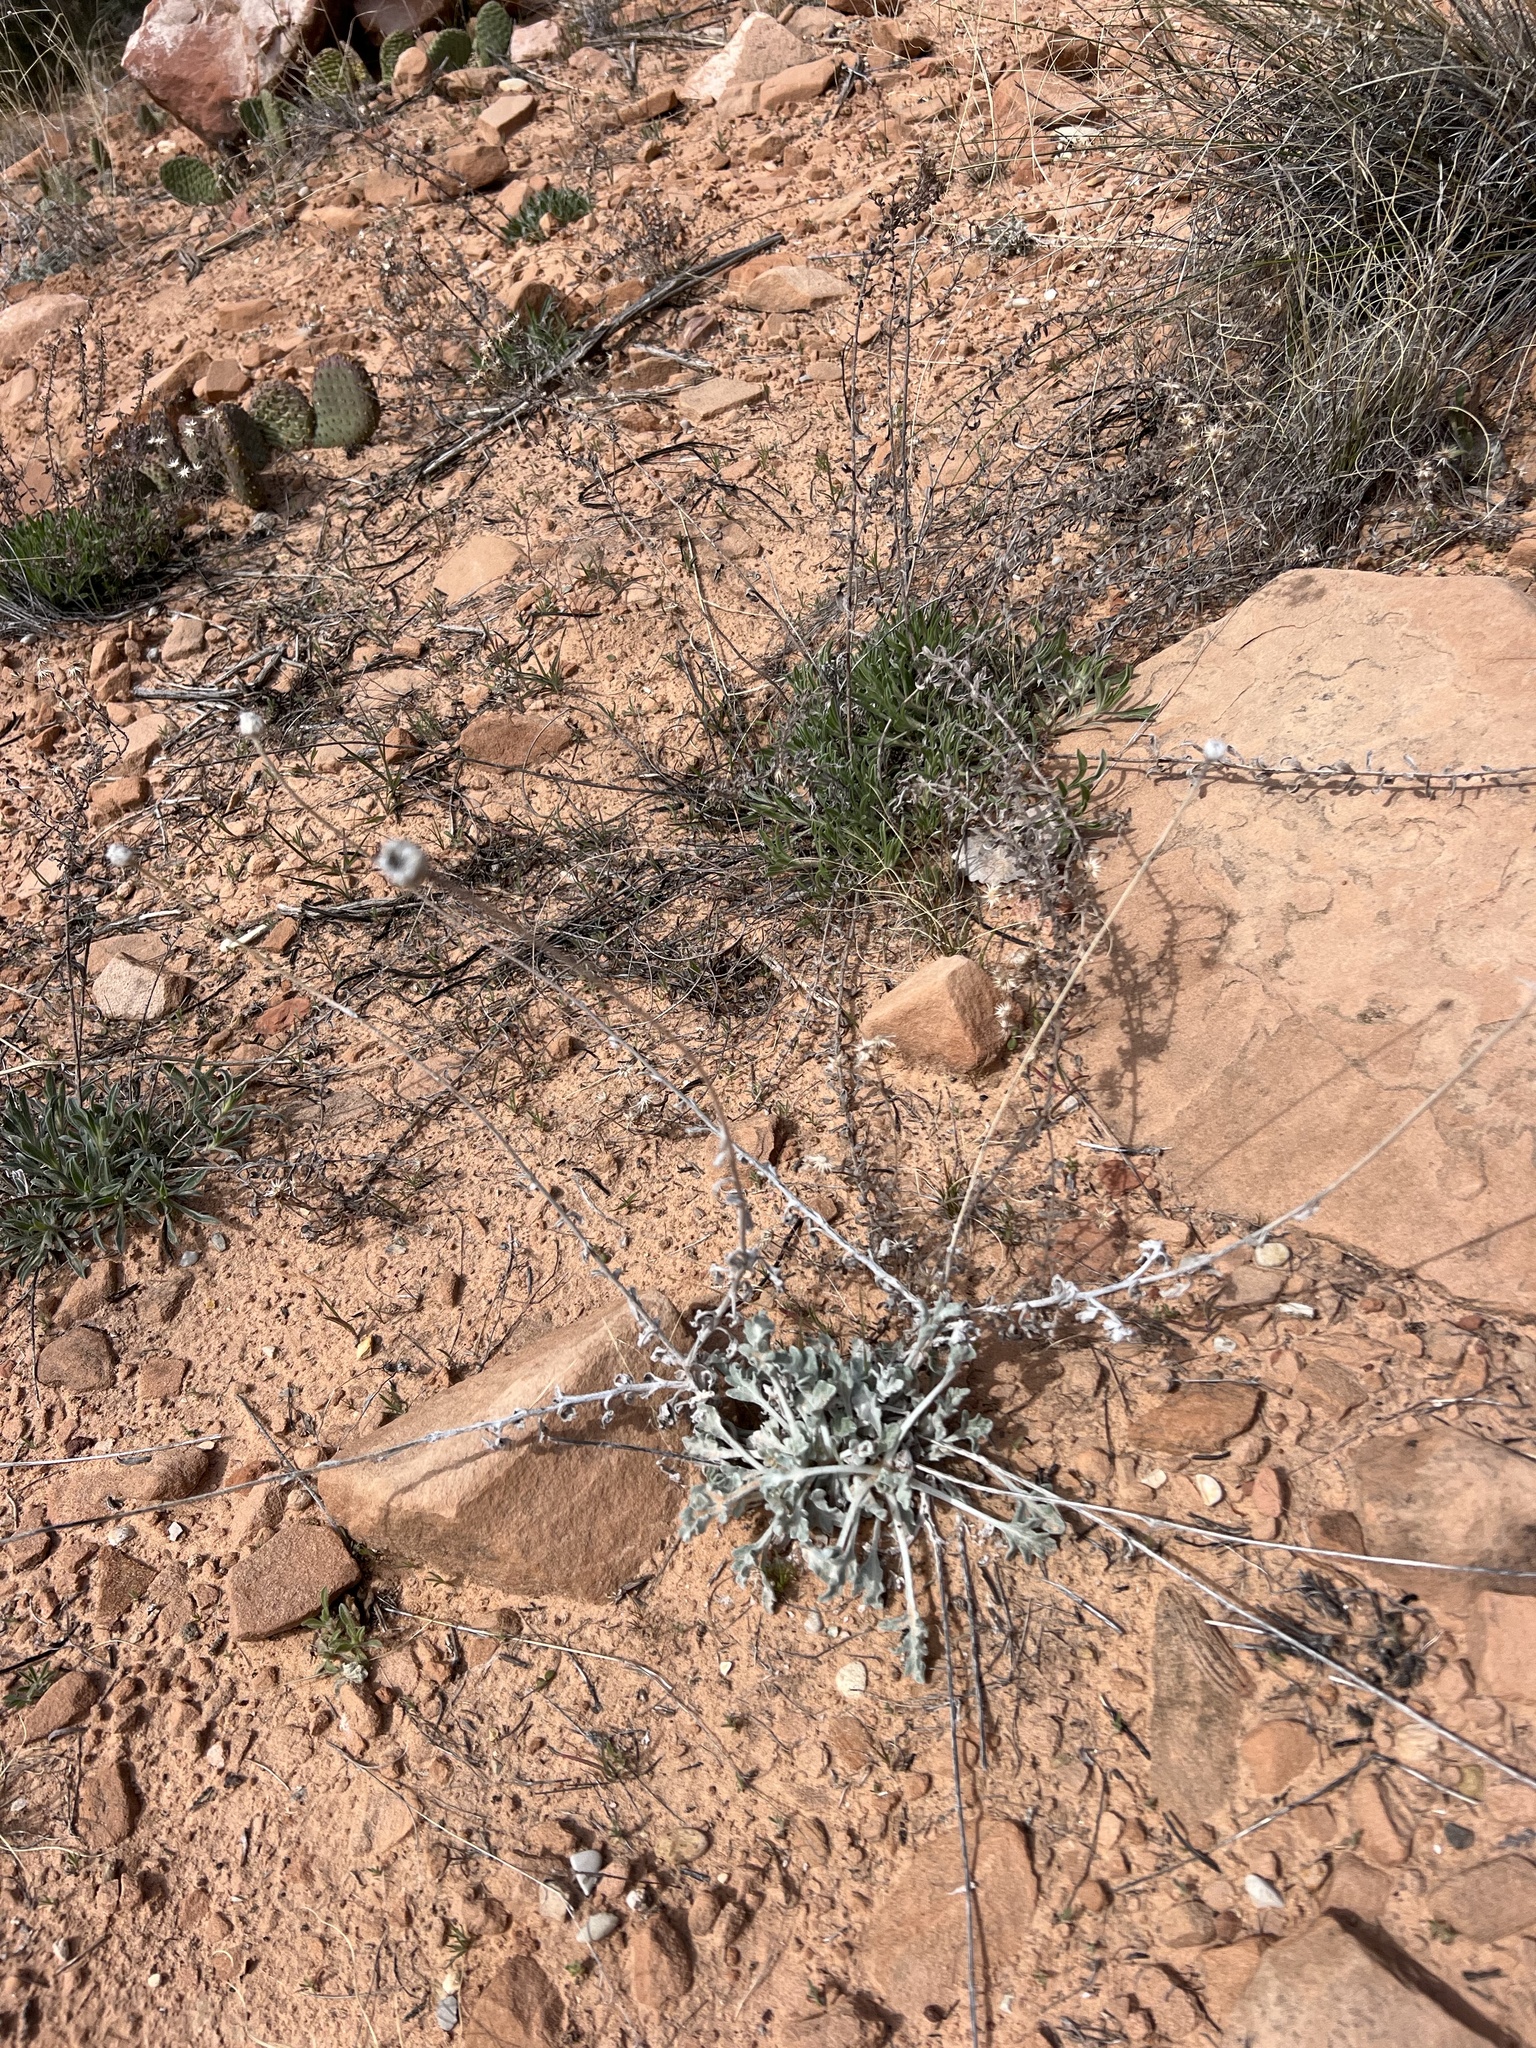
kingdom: Plantae
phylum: Tracheophyta
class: Magnoliopsida
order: Asterales
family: Asteraceae
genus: Baileya
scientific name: Baileya multiradiata
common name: Desert-marigold
